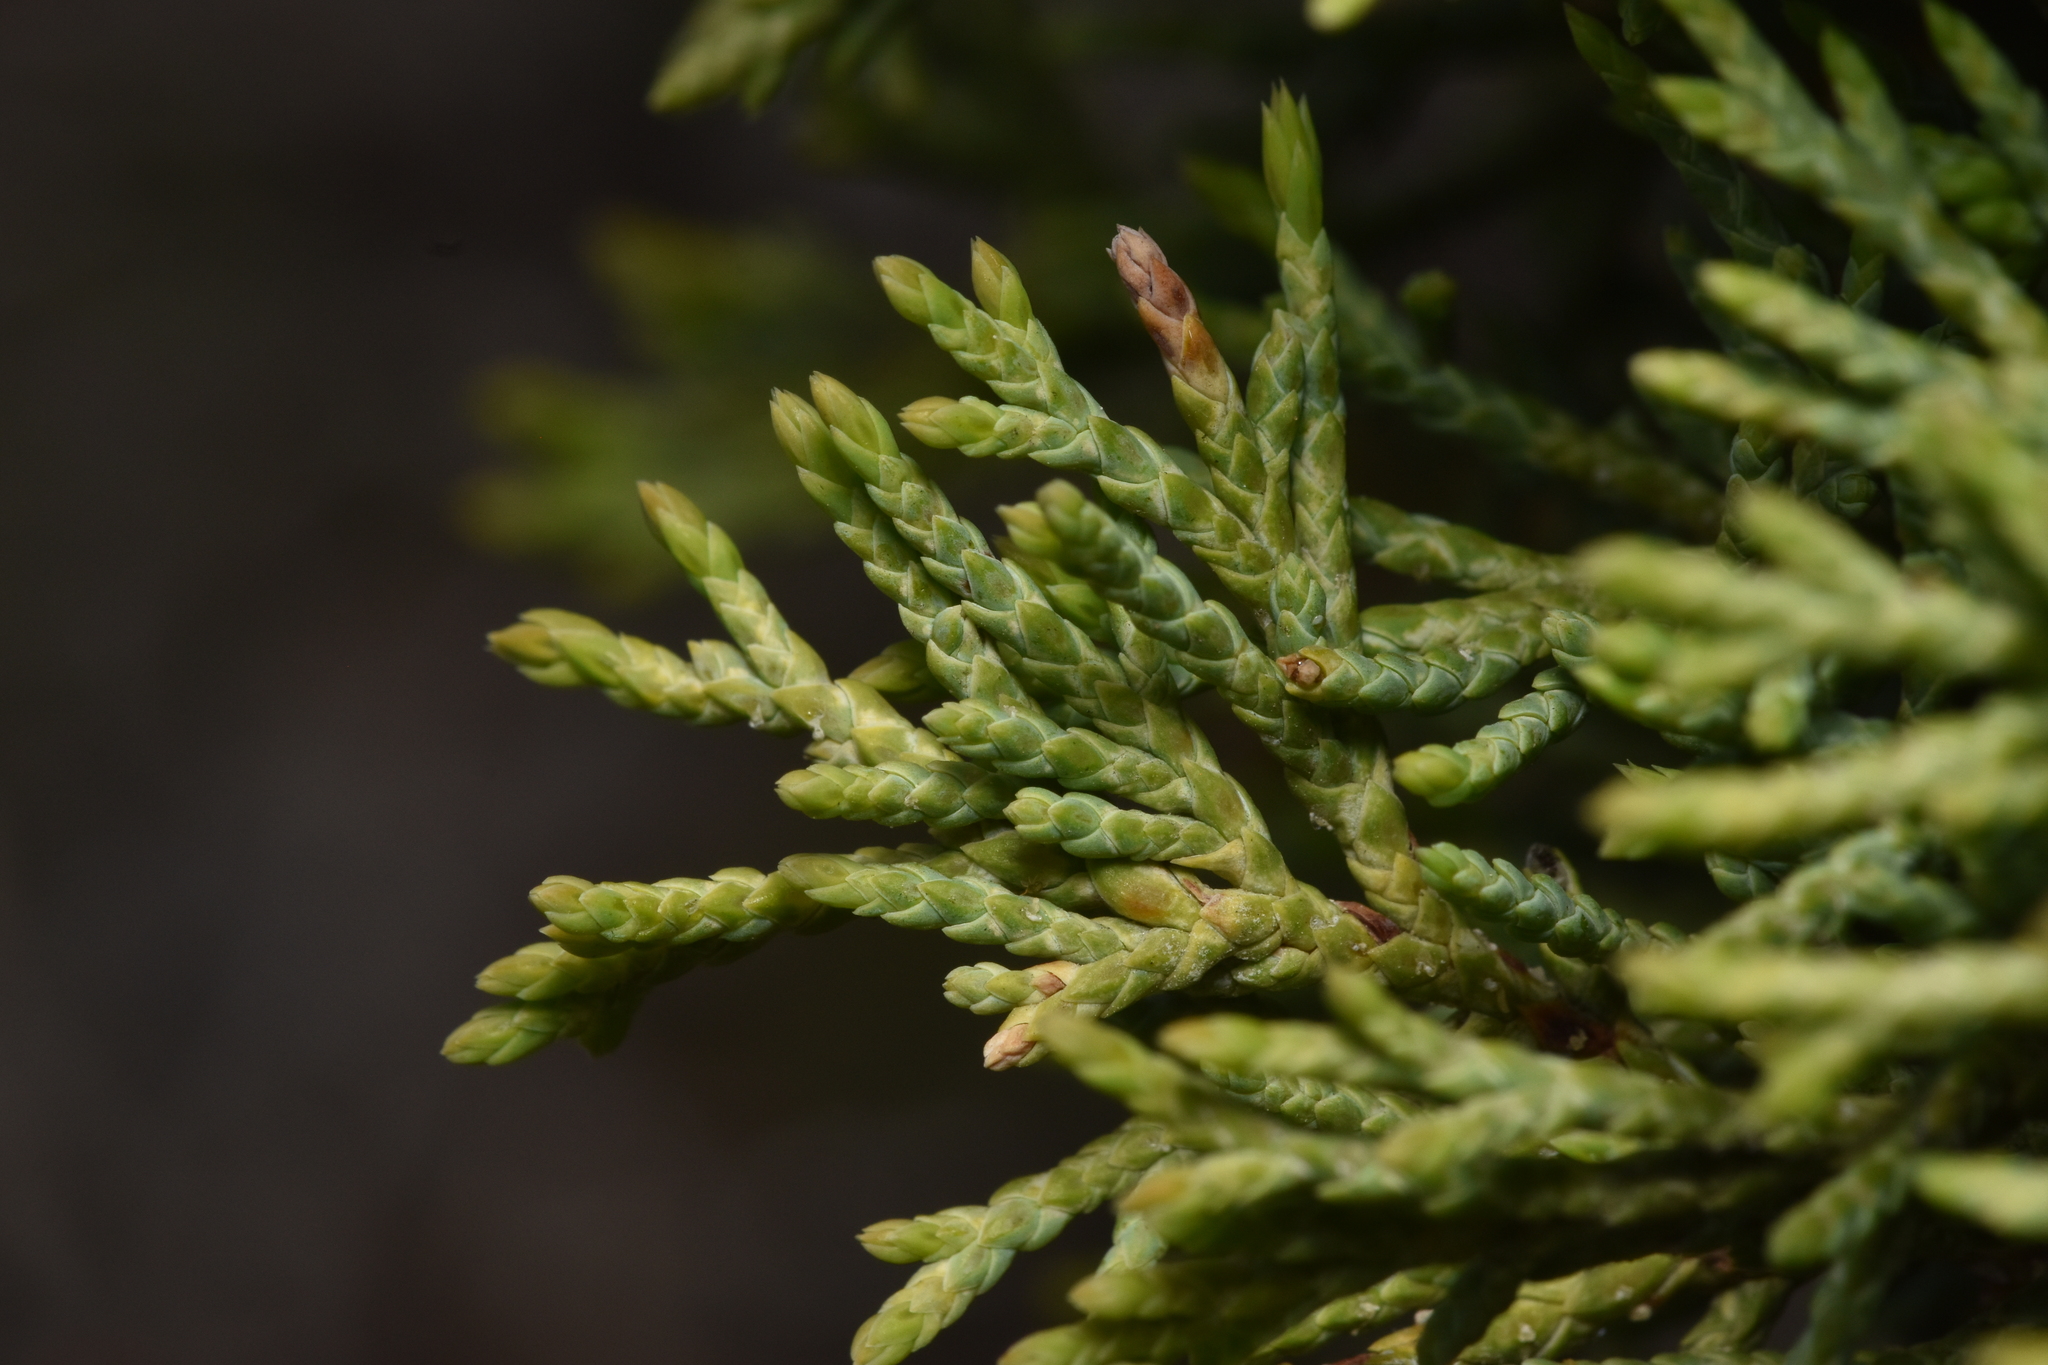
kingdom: Plantae
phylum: Tracheophyta
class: Pinopsida
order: Pinales
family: Cupressaceae
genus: Juniperus
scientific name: Juniperus scopulorum
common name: Rocky mountain juniper
